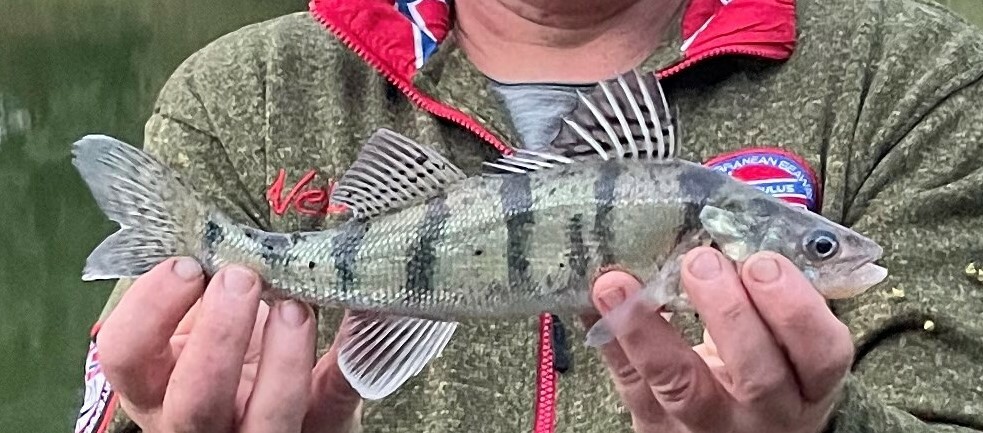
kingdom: Animalia
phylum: Chordata
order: Perciformes
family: Percidae
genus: Sander
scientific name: Sander volgensis
